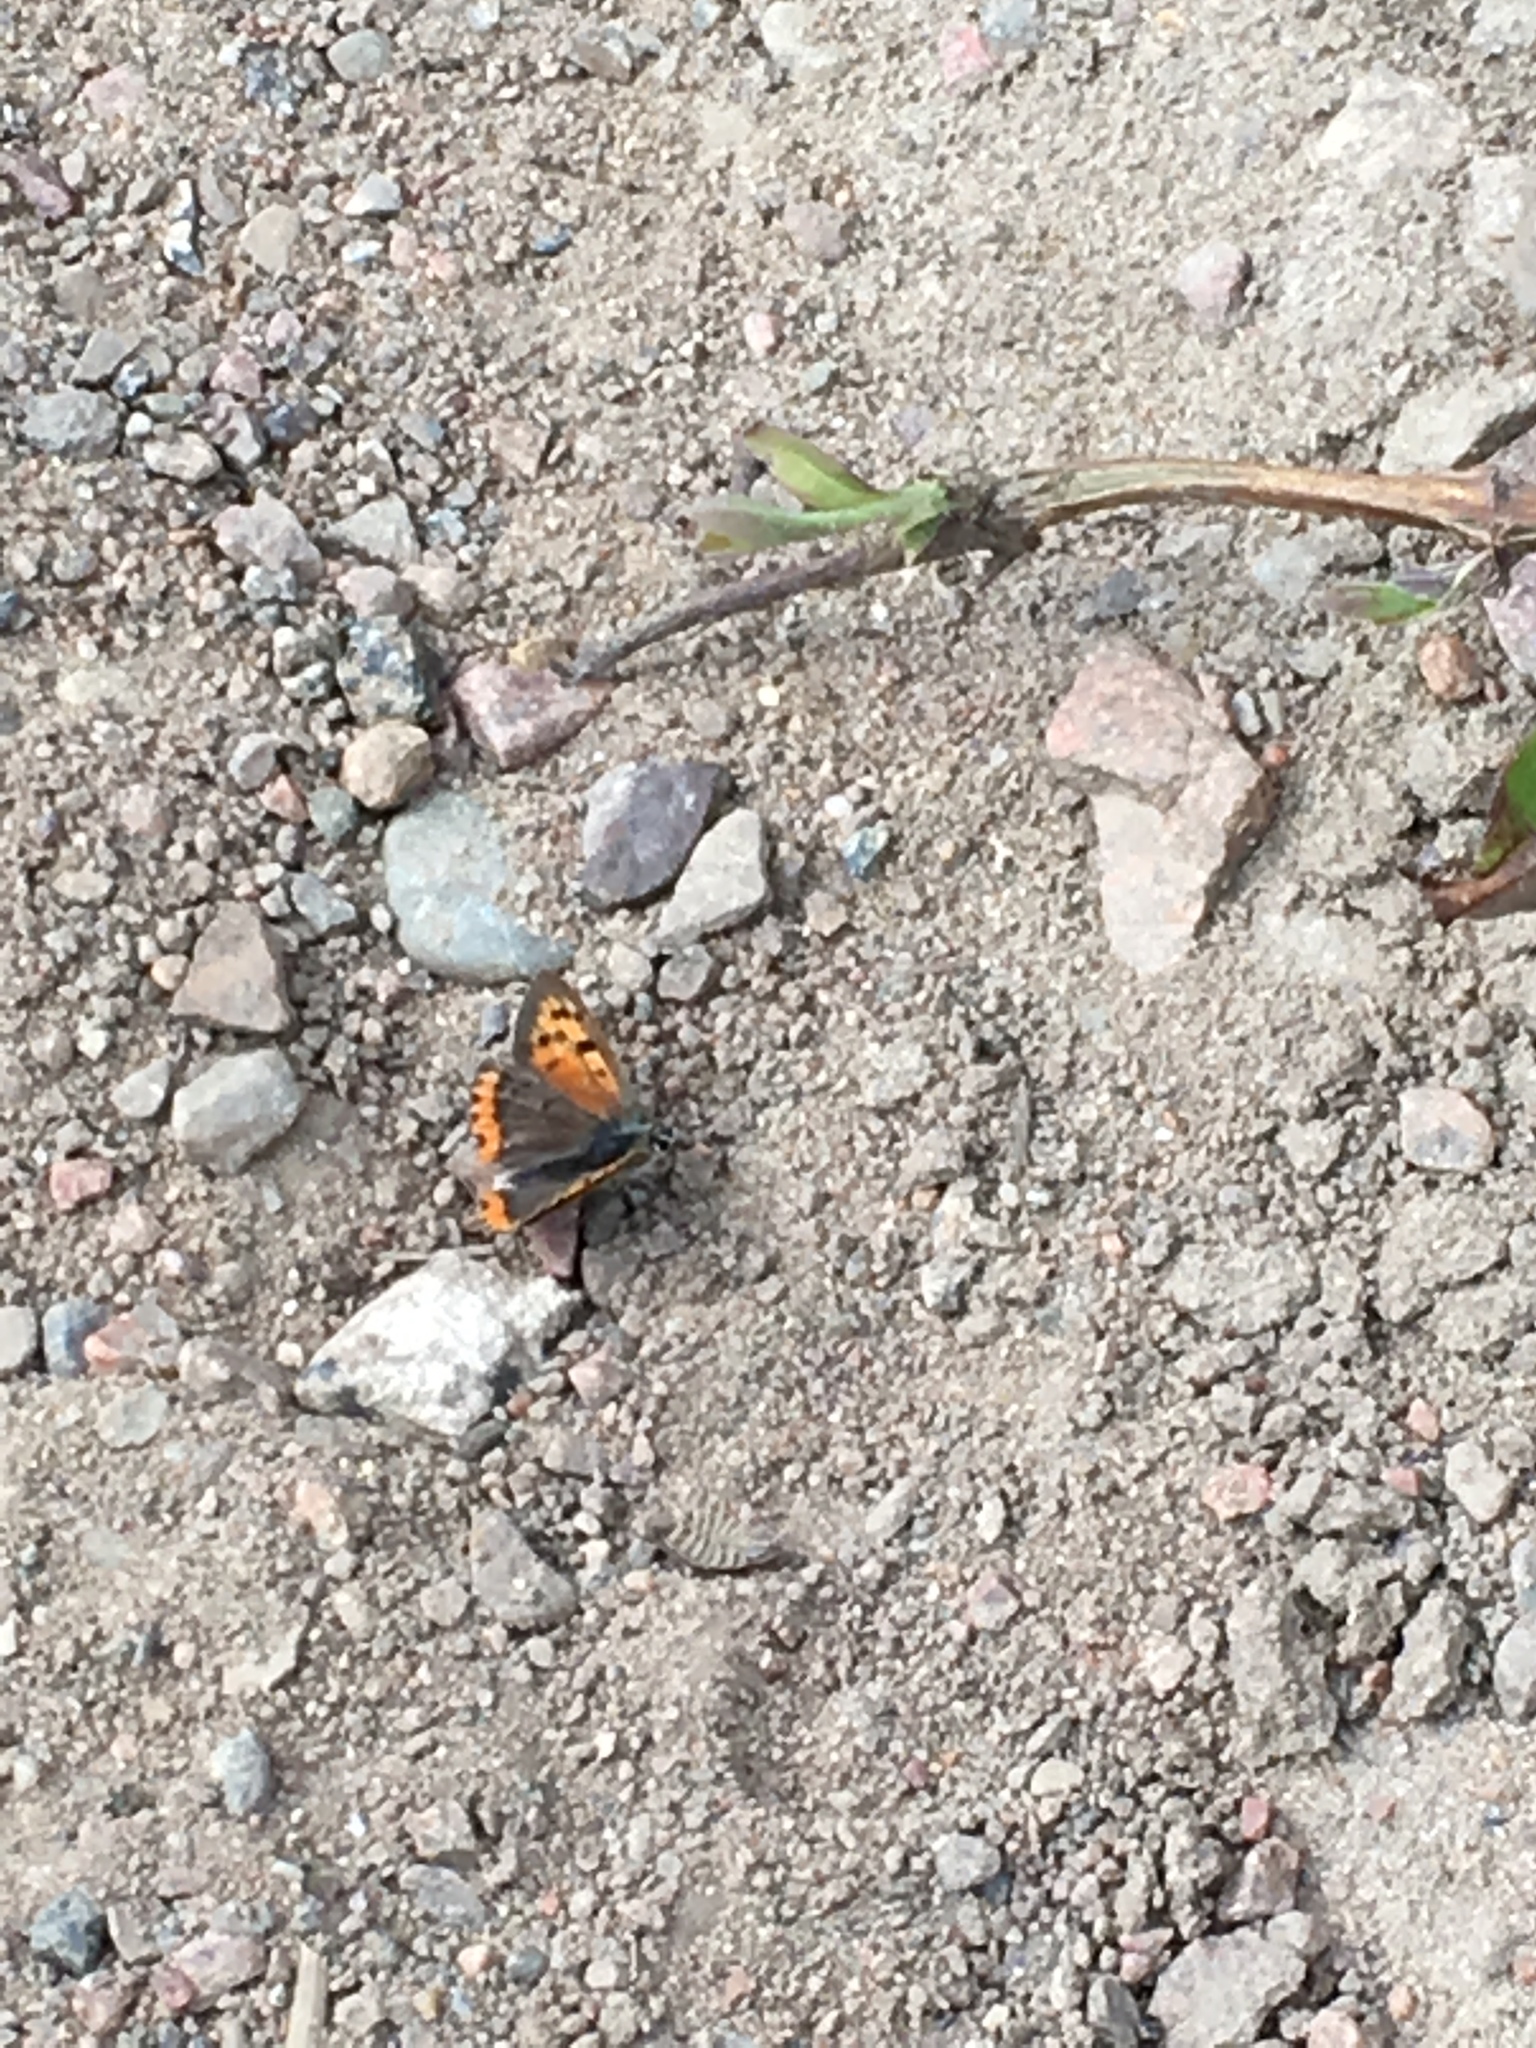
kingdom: Animalia
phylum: Arthropoda
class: Insecta
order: Lepidoptera
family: Lycaenidae
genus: Lycaena
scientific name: Lycaena phlaeas
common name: Small copper
